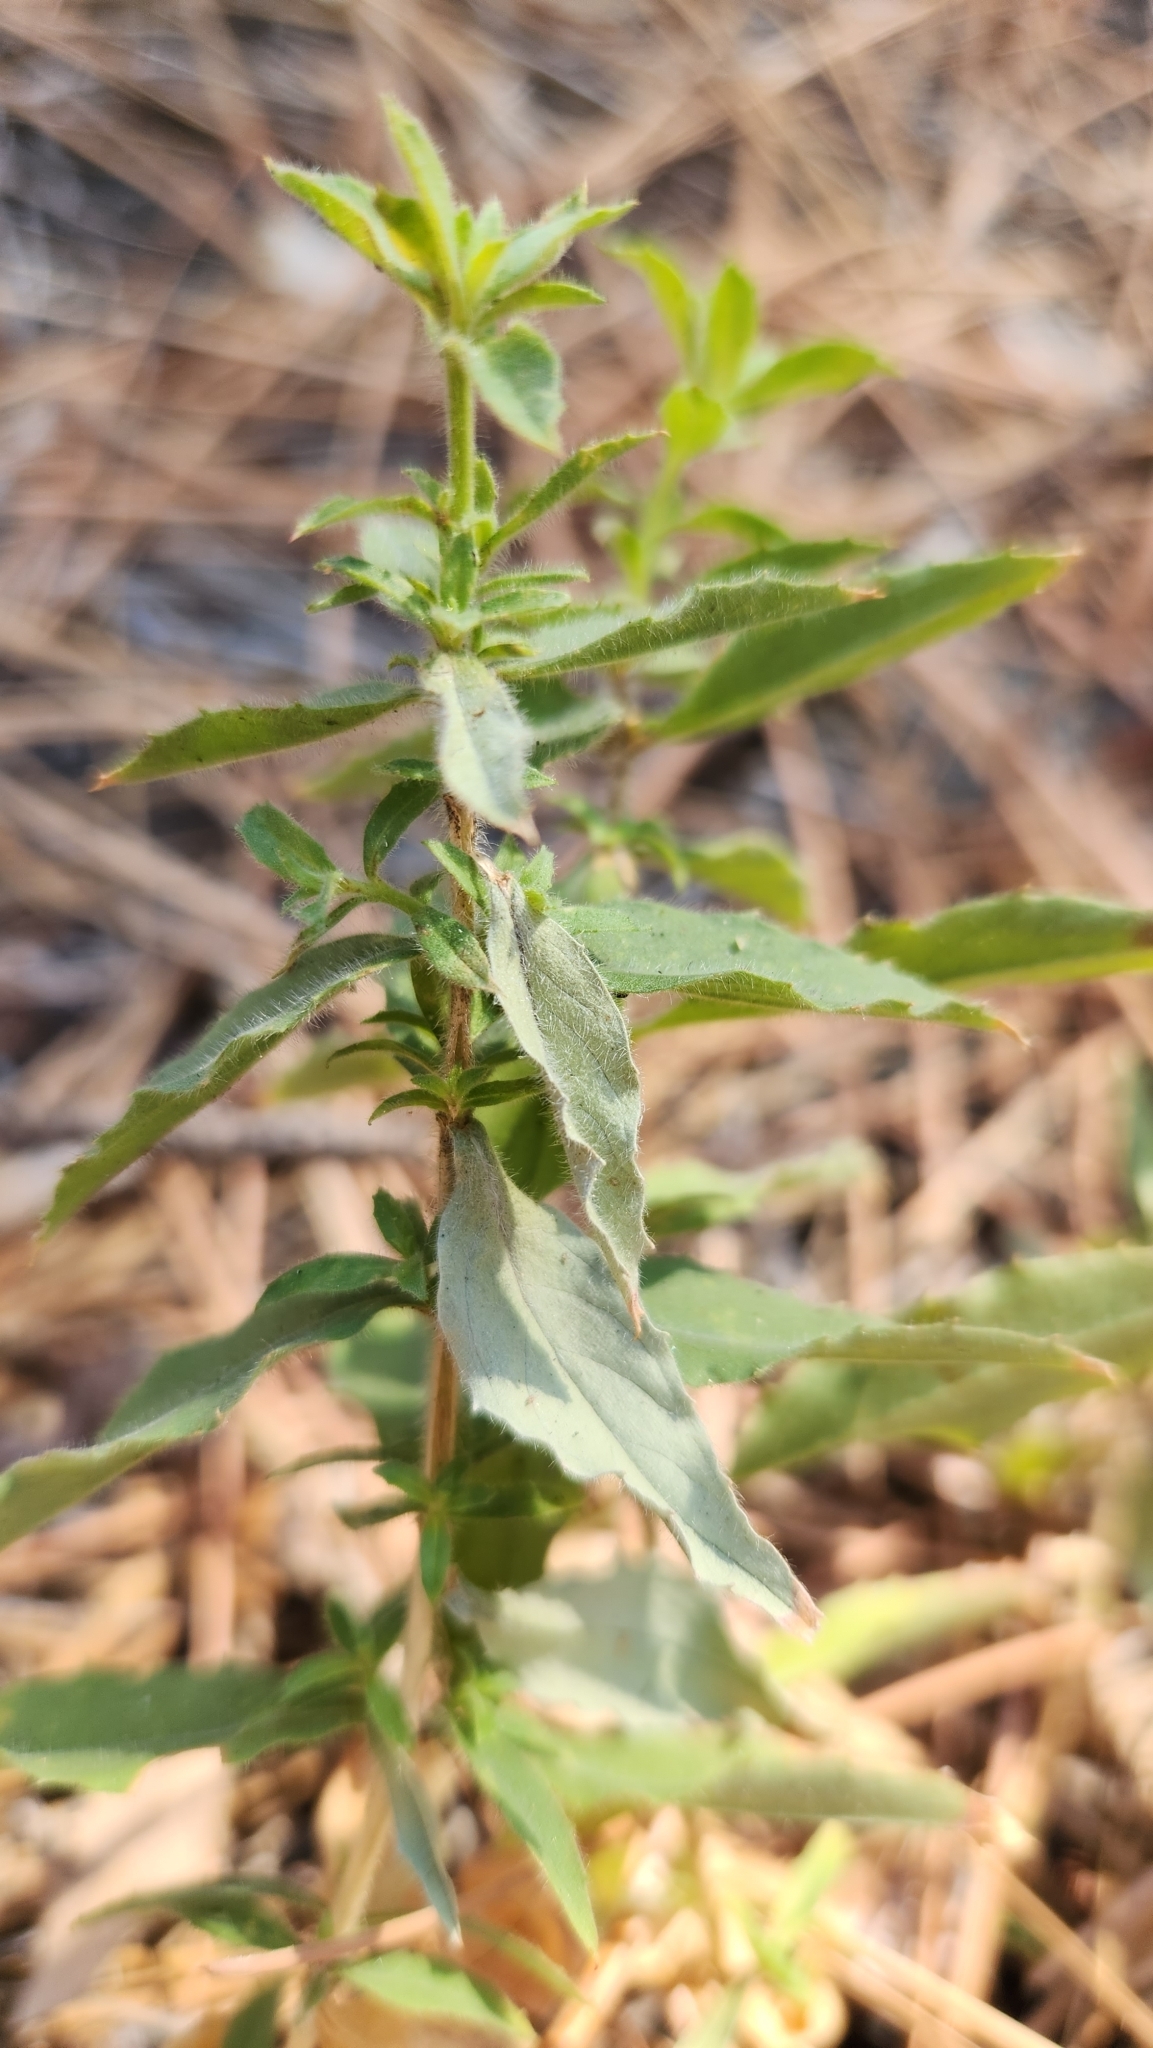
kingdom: Plantae
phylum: Tracheophyta
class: Magnoliopsida
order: Myrtales
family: Onagraceae
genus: Epilobium
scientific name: Epilobium canum
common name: California-fuchsia
